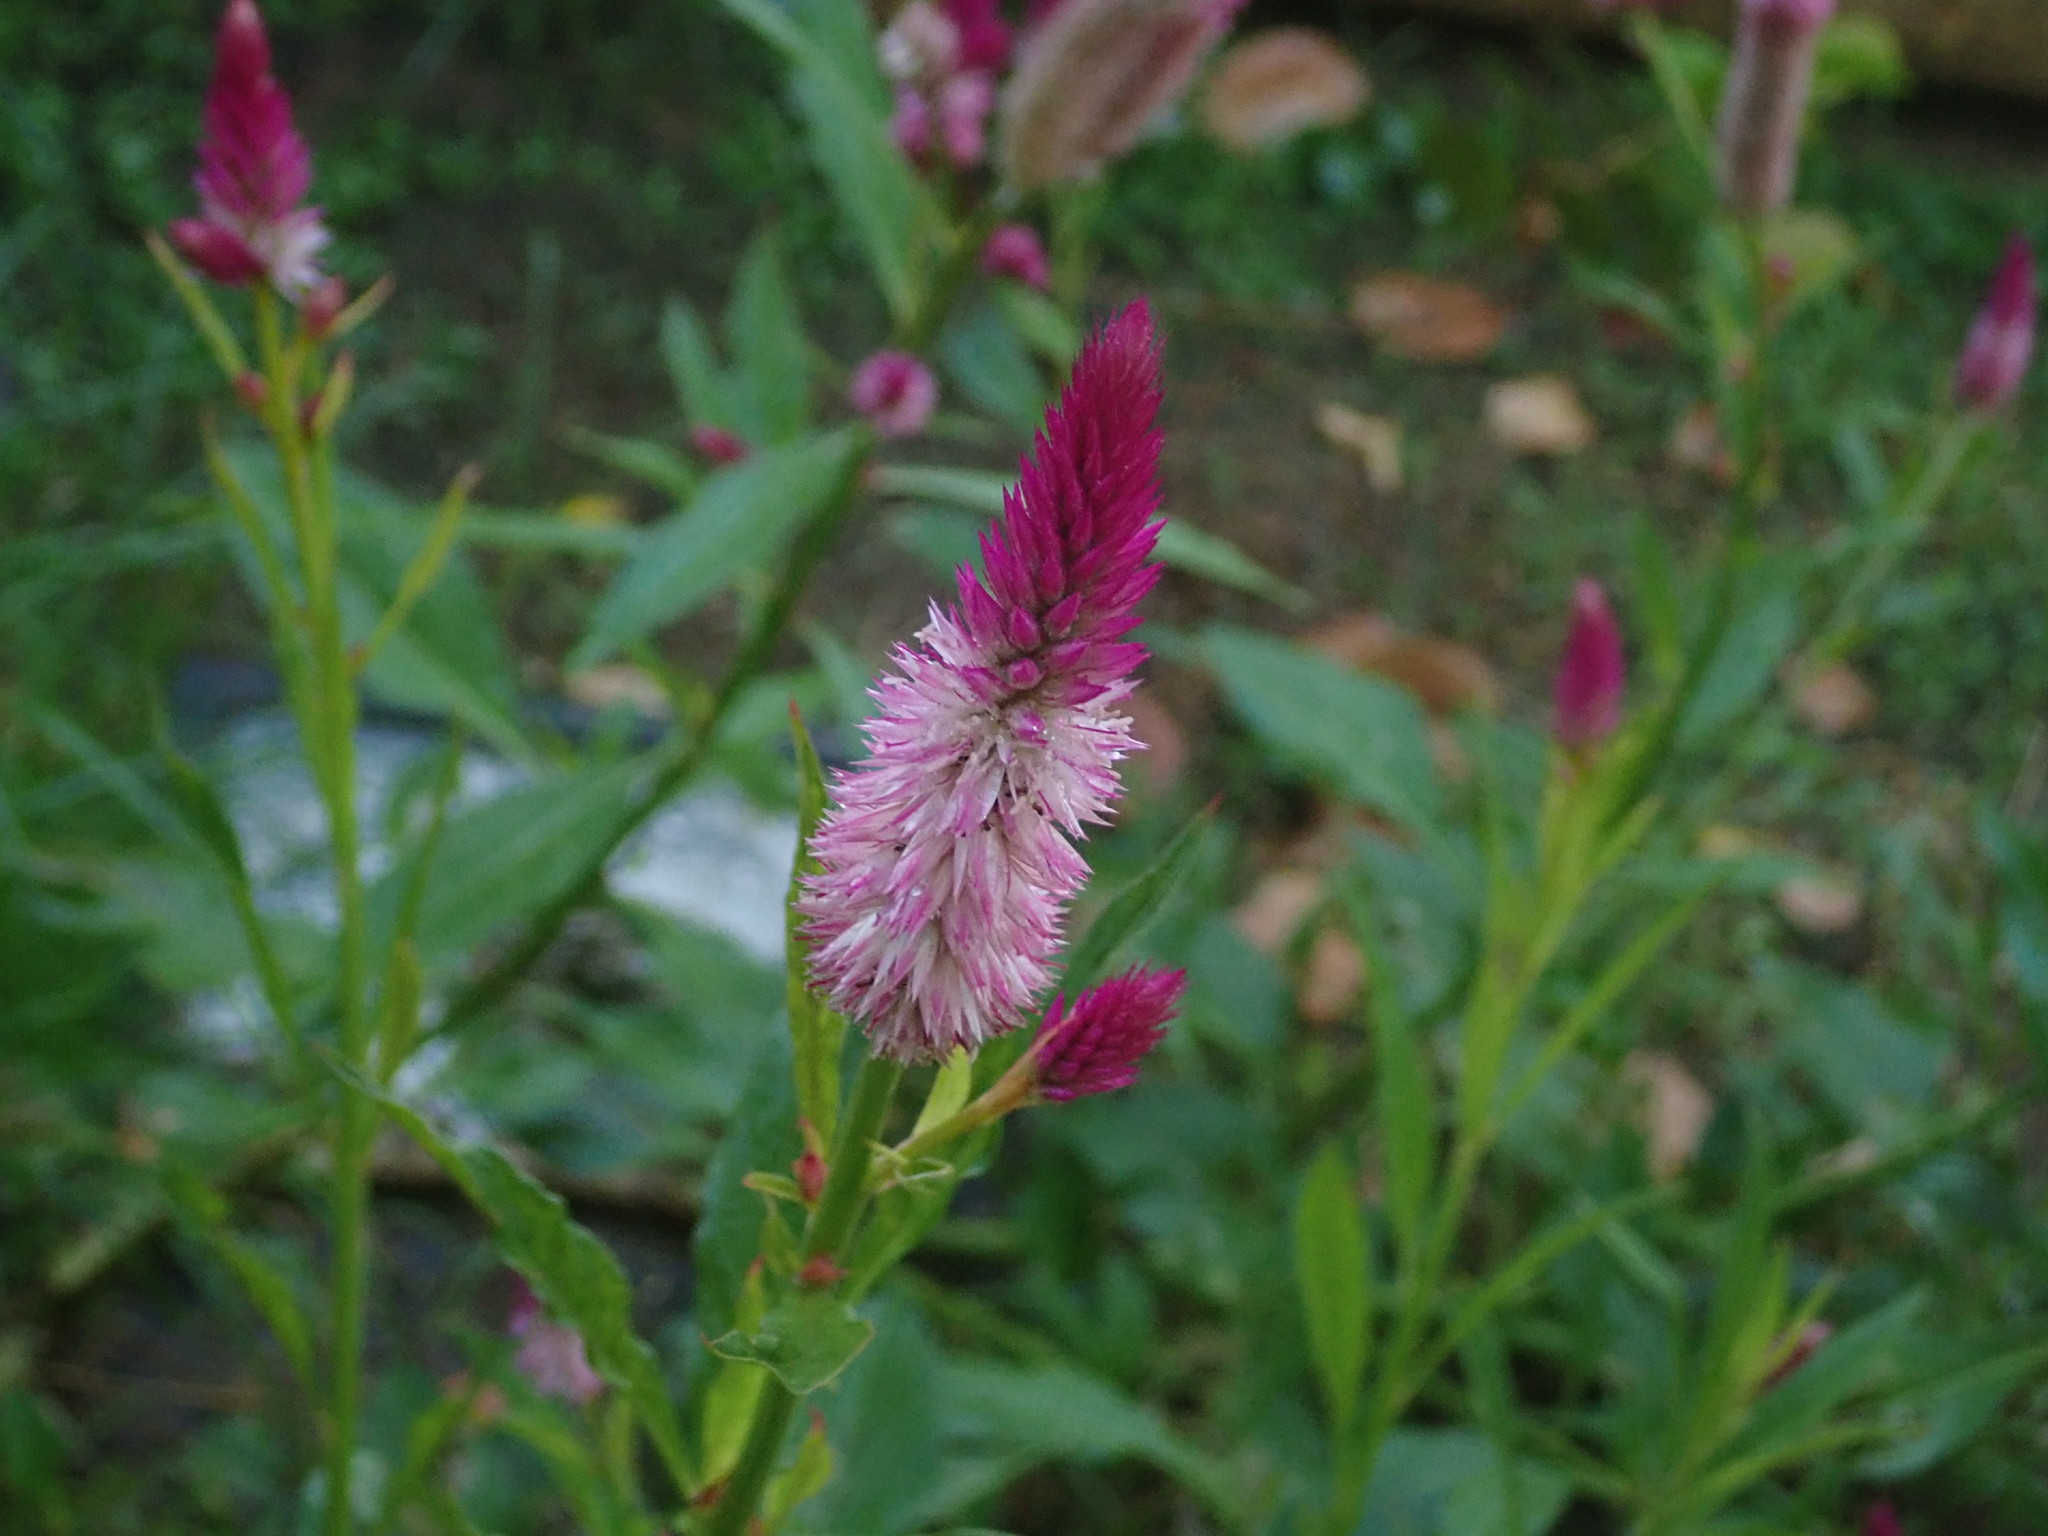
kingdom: Plantae
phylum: Tracheophyta
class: Magnoliopsida
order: Caryophyllales
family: Amaranthaceae
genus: Celosia
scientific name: Celosia argentea
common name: Feather cockscomb
